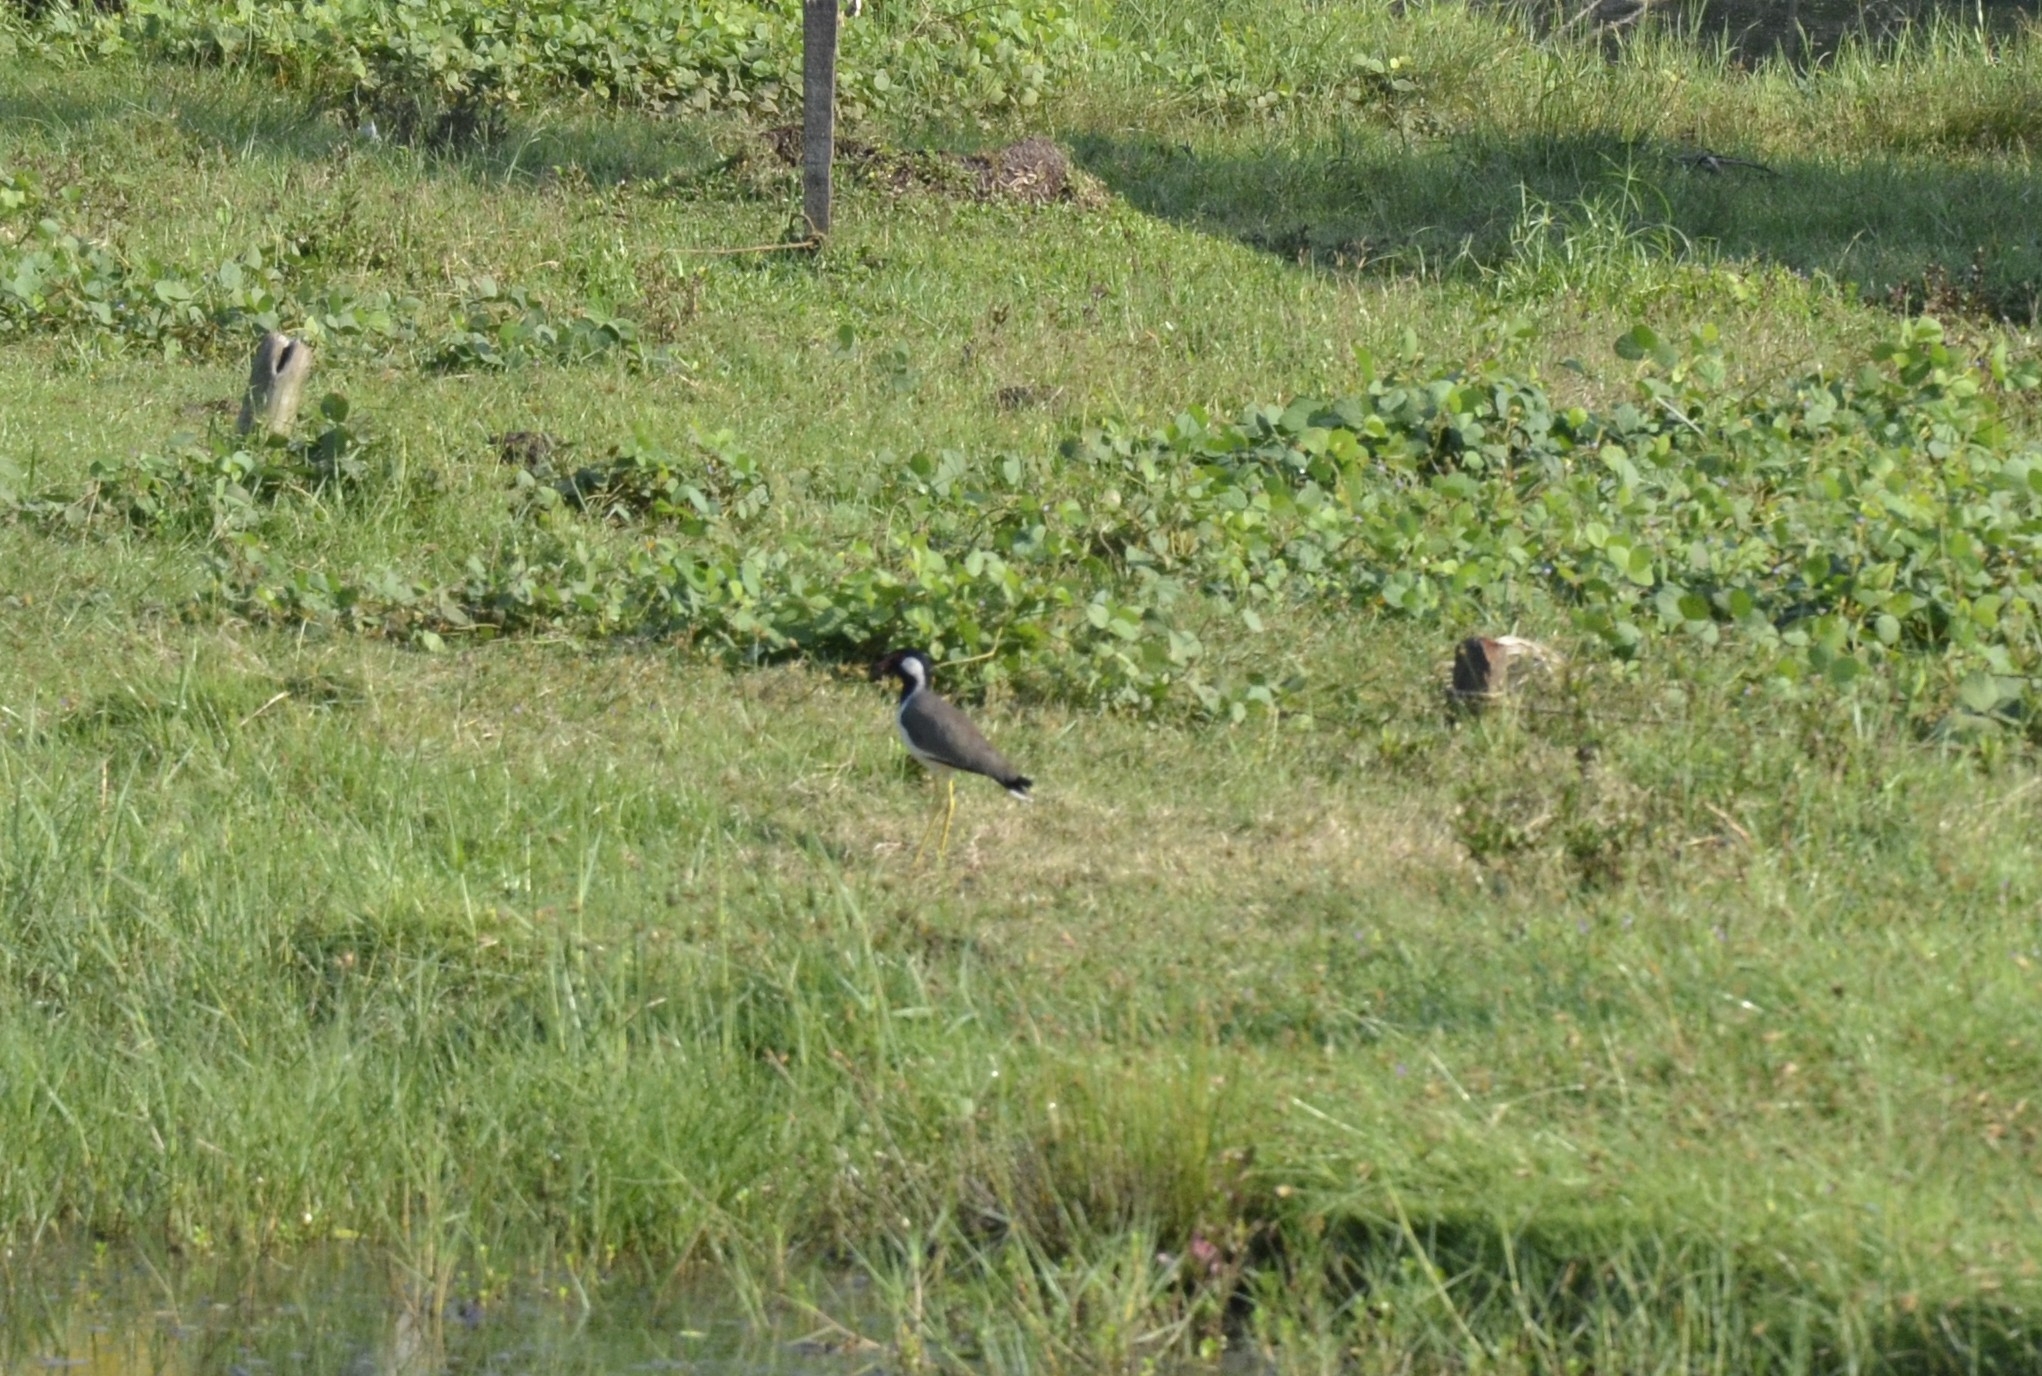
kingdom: Animalia
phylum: Chordata
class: Aves
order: Charadriiformes
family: Charadriidae
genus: Vanellus
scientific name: Vanellus indicus
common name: Red-wattled lapwing
